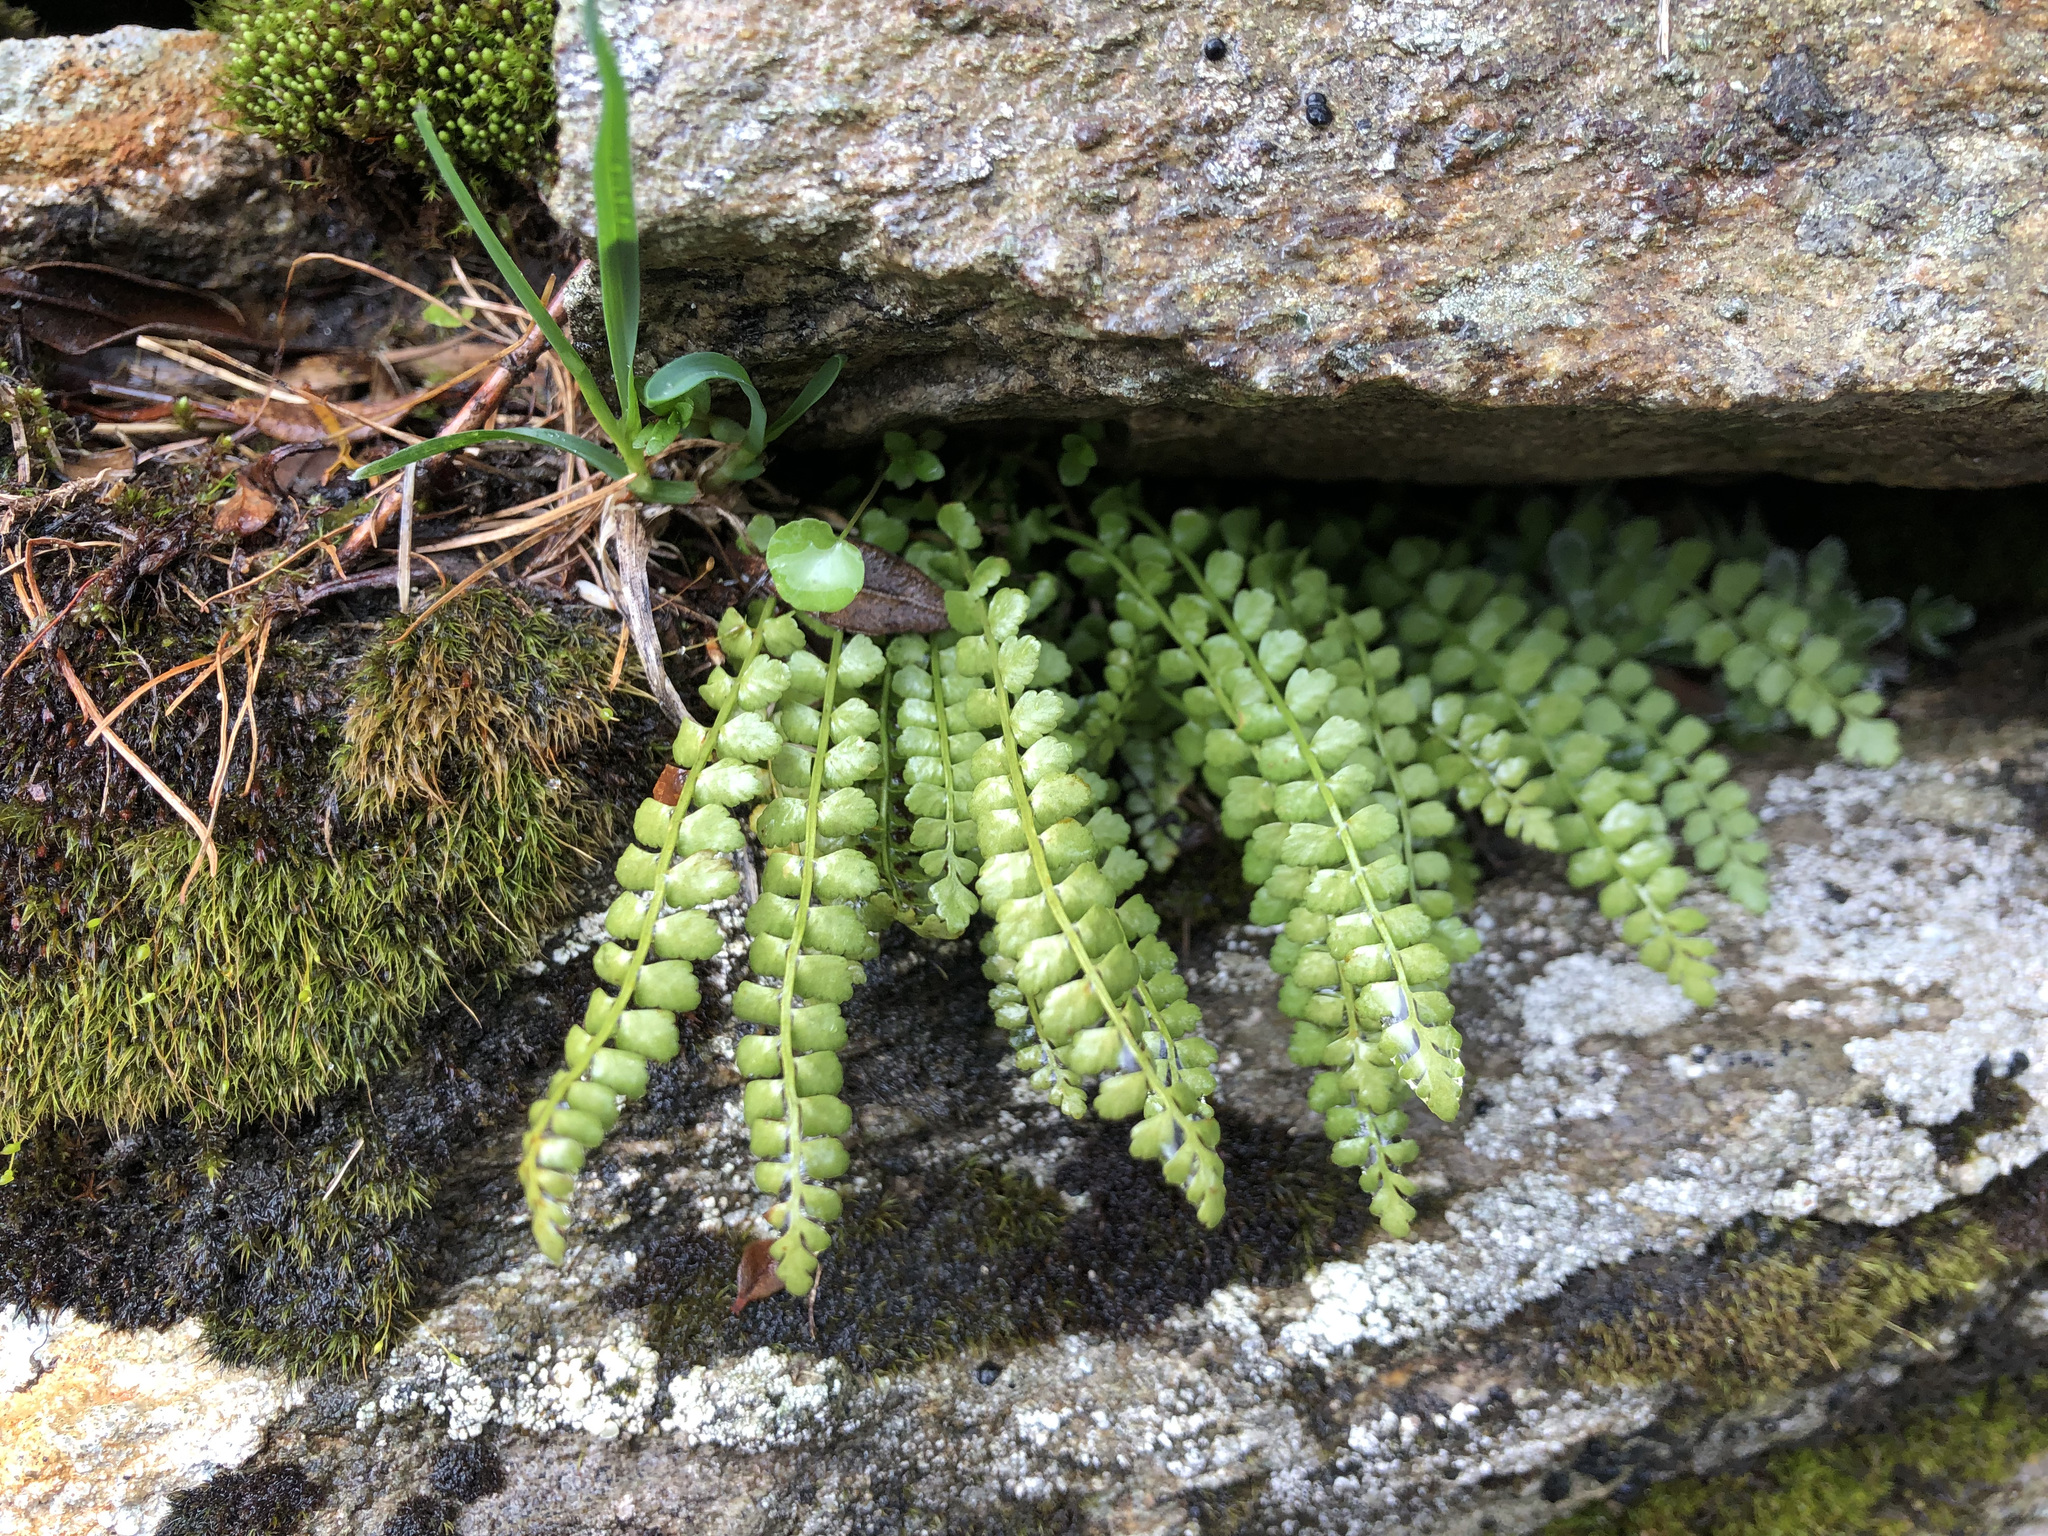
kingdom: Plantae
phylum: Tracheophyta
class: Polypodiopsida
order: Polypodiales
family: Aspleniaceae
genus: Asplenium
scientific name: Asplenium viride
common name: Green spleenwort
